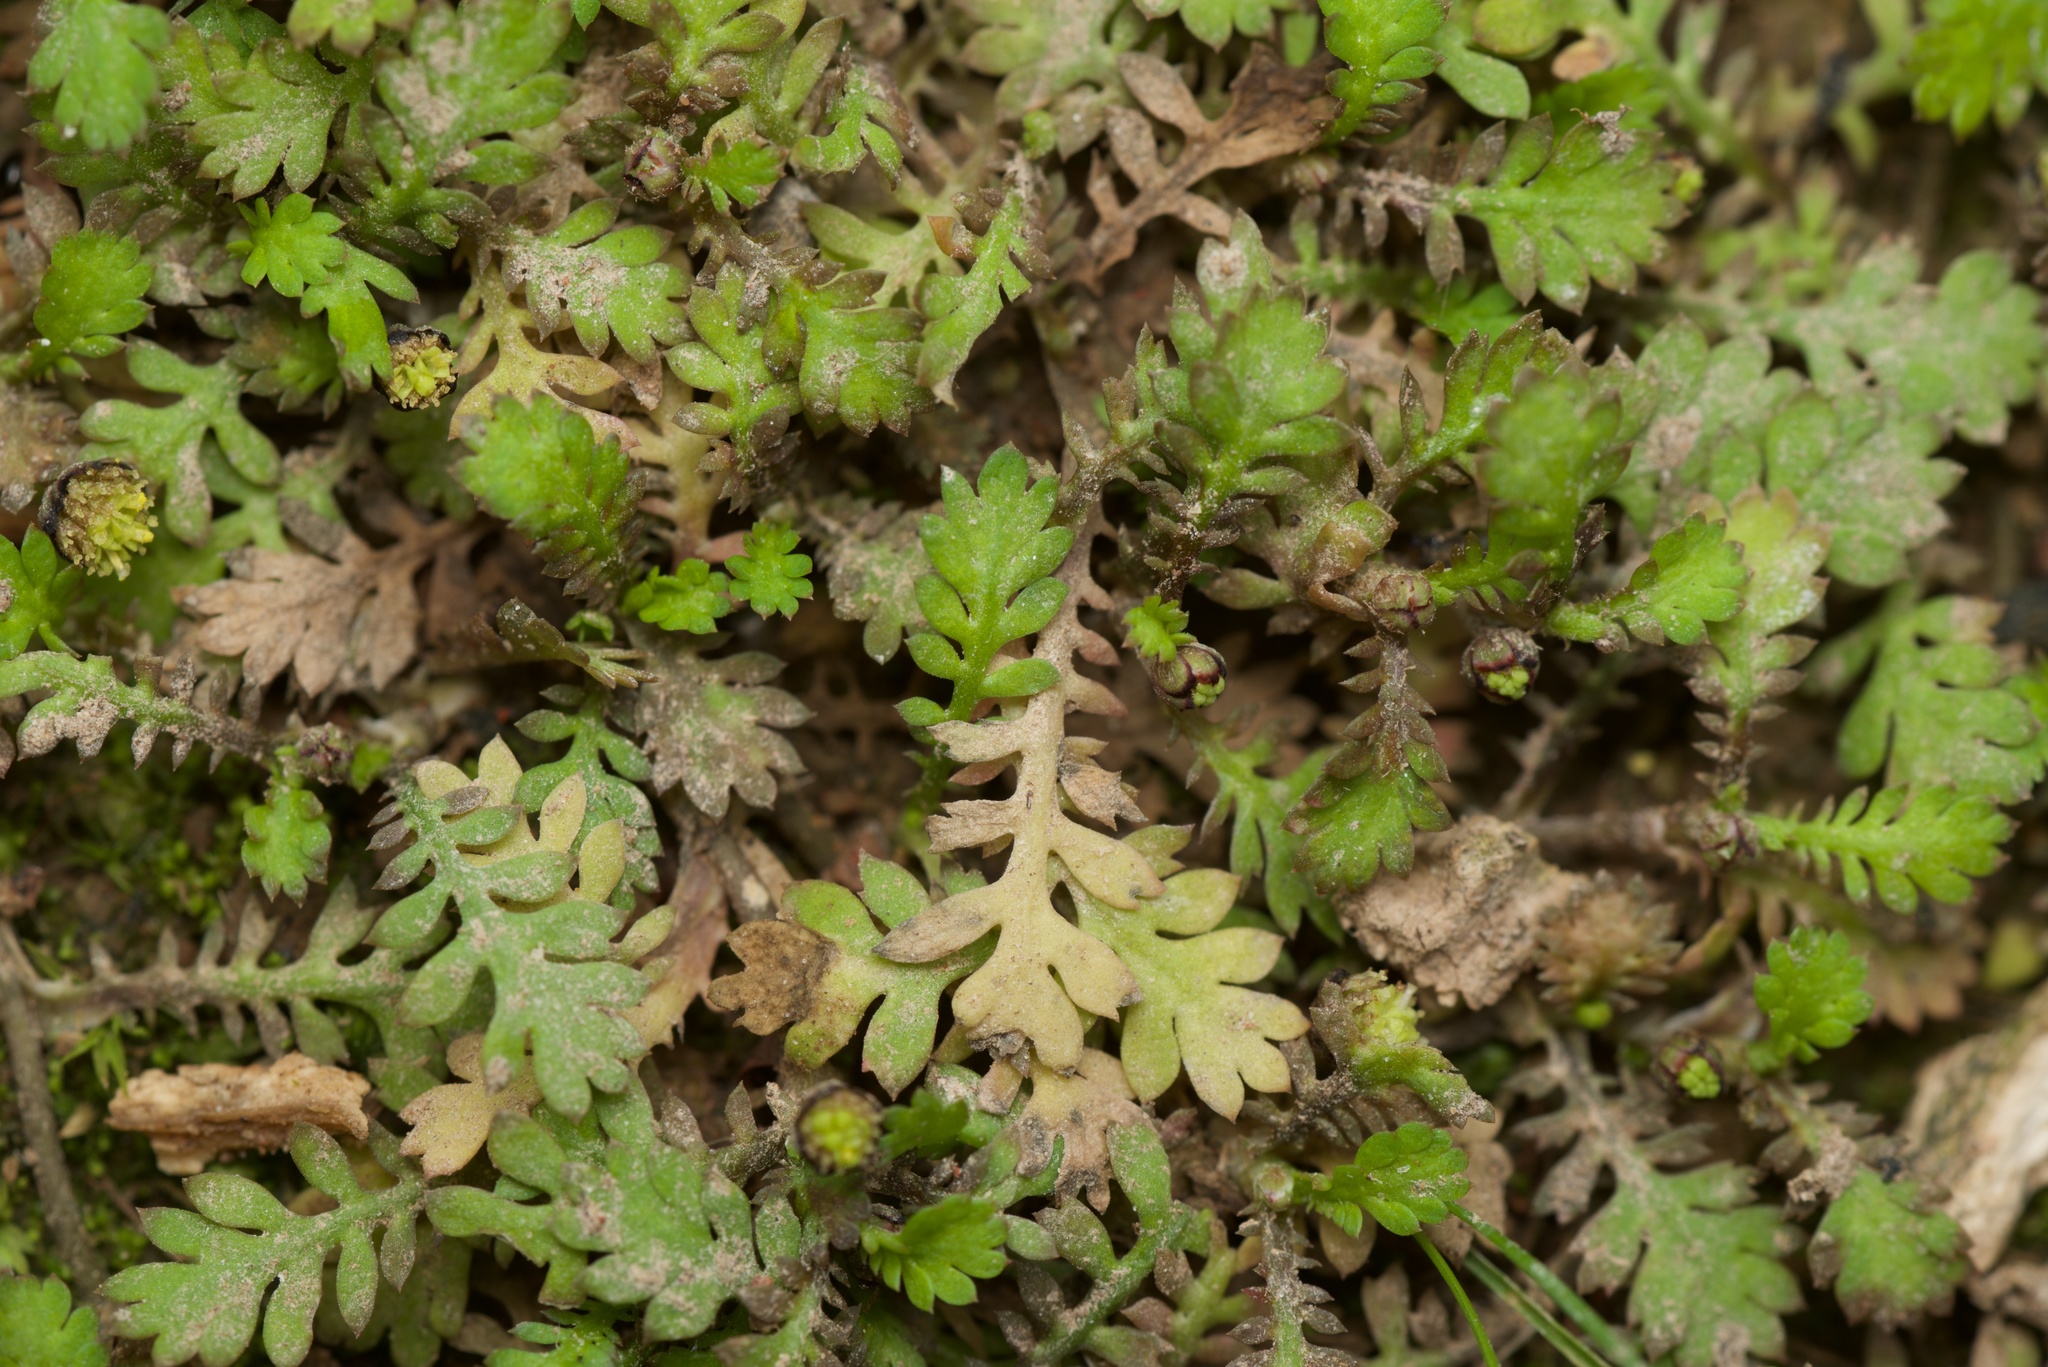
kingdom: Plantae
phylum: Tracheophyta
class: Magnoliopsida
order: Asterales
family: Asteraceae
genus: Leptinella
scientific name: Leptinella nana
